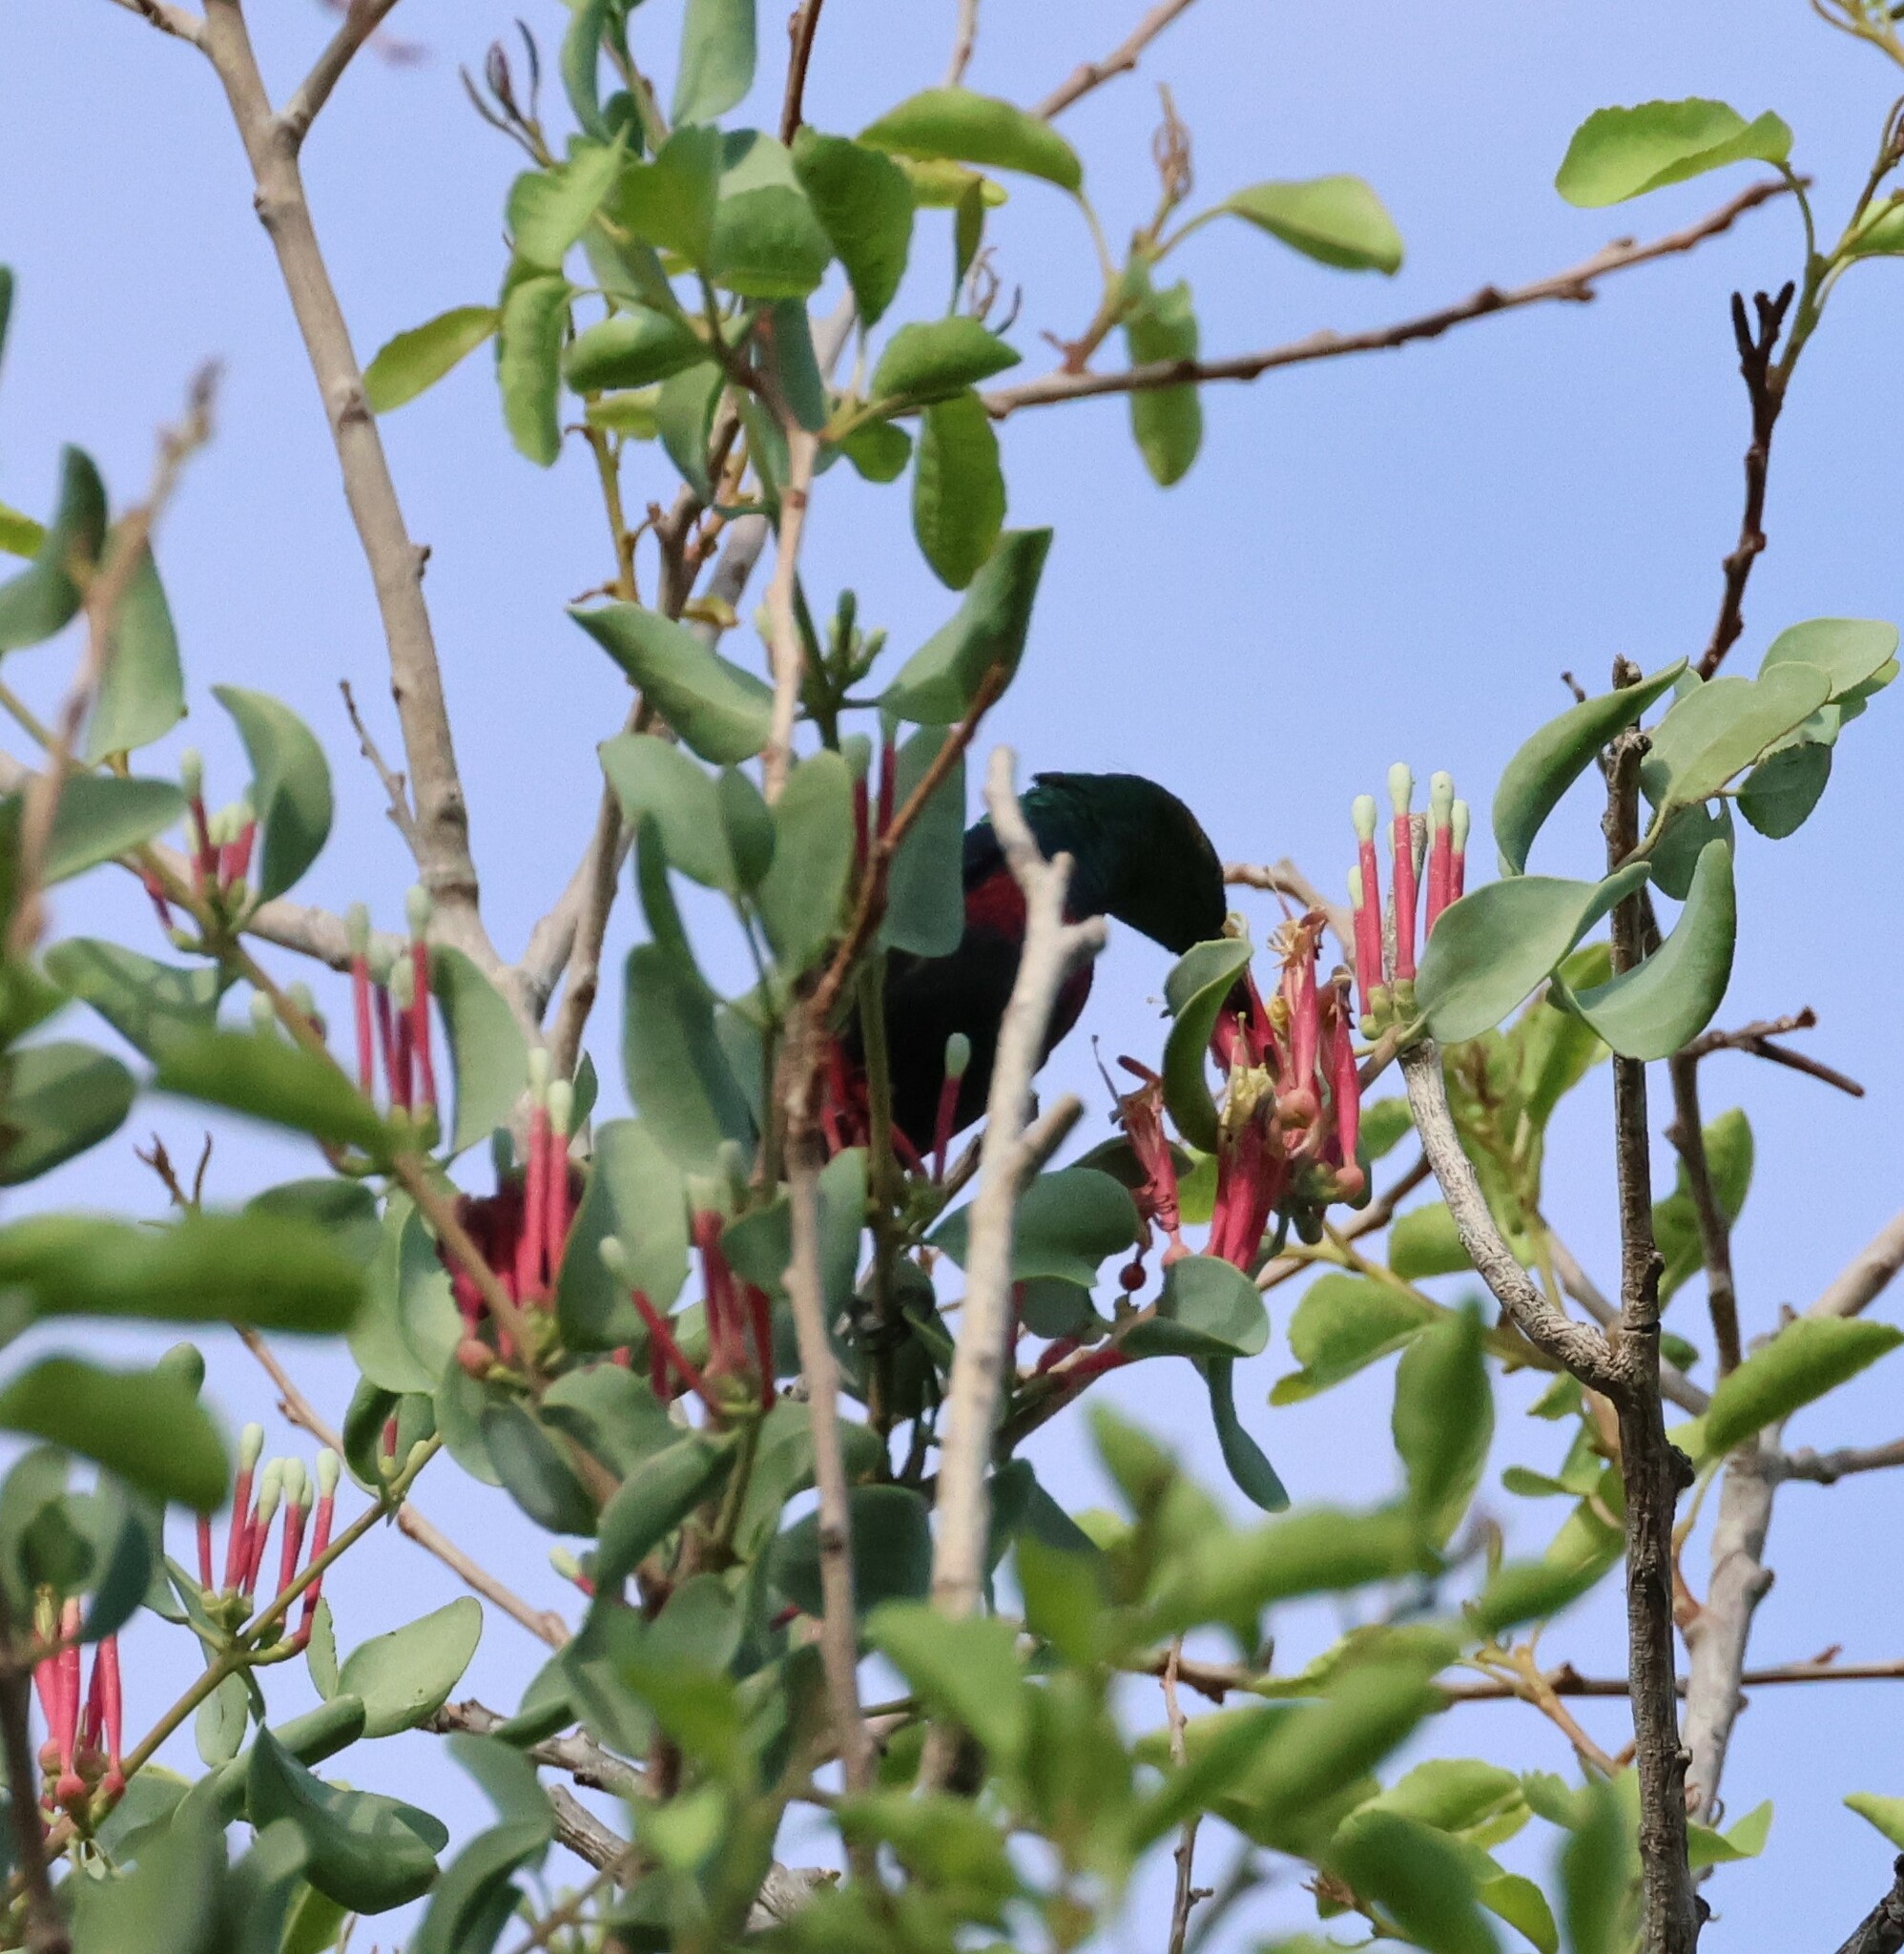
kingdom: Animalia
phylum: Chordata
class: Aves
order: Passeriformes
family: Nectariniidae
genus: Cinnyris
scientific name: Cinnyris mariquensis
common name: Marico sunbird
